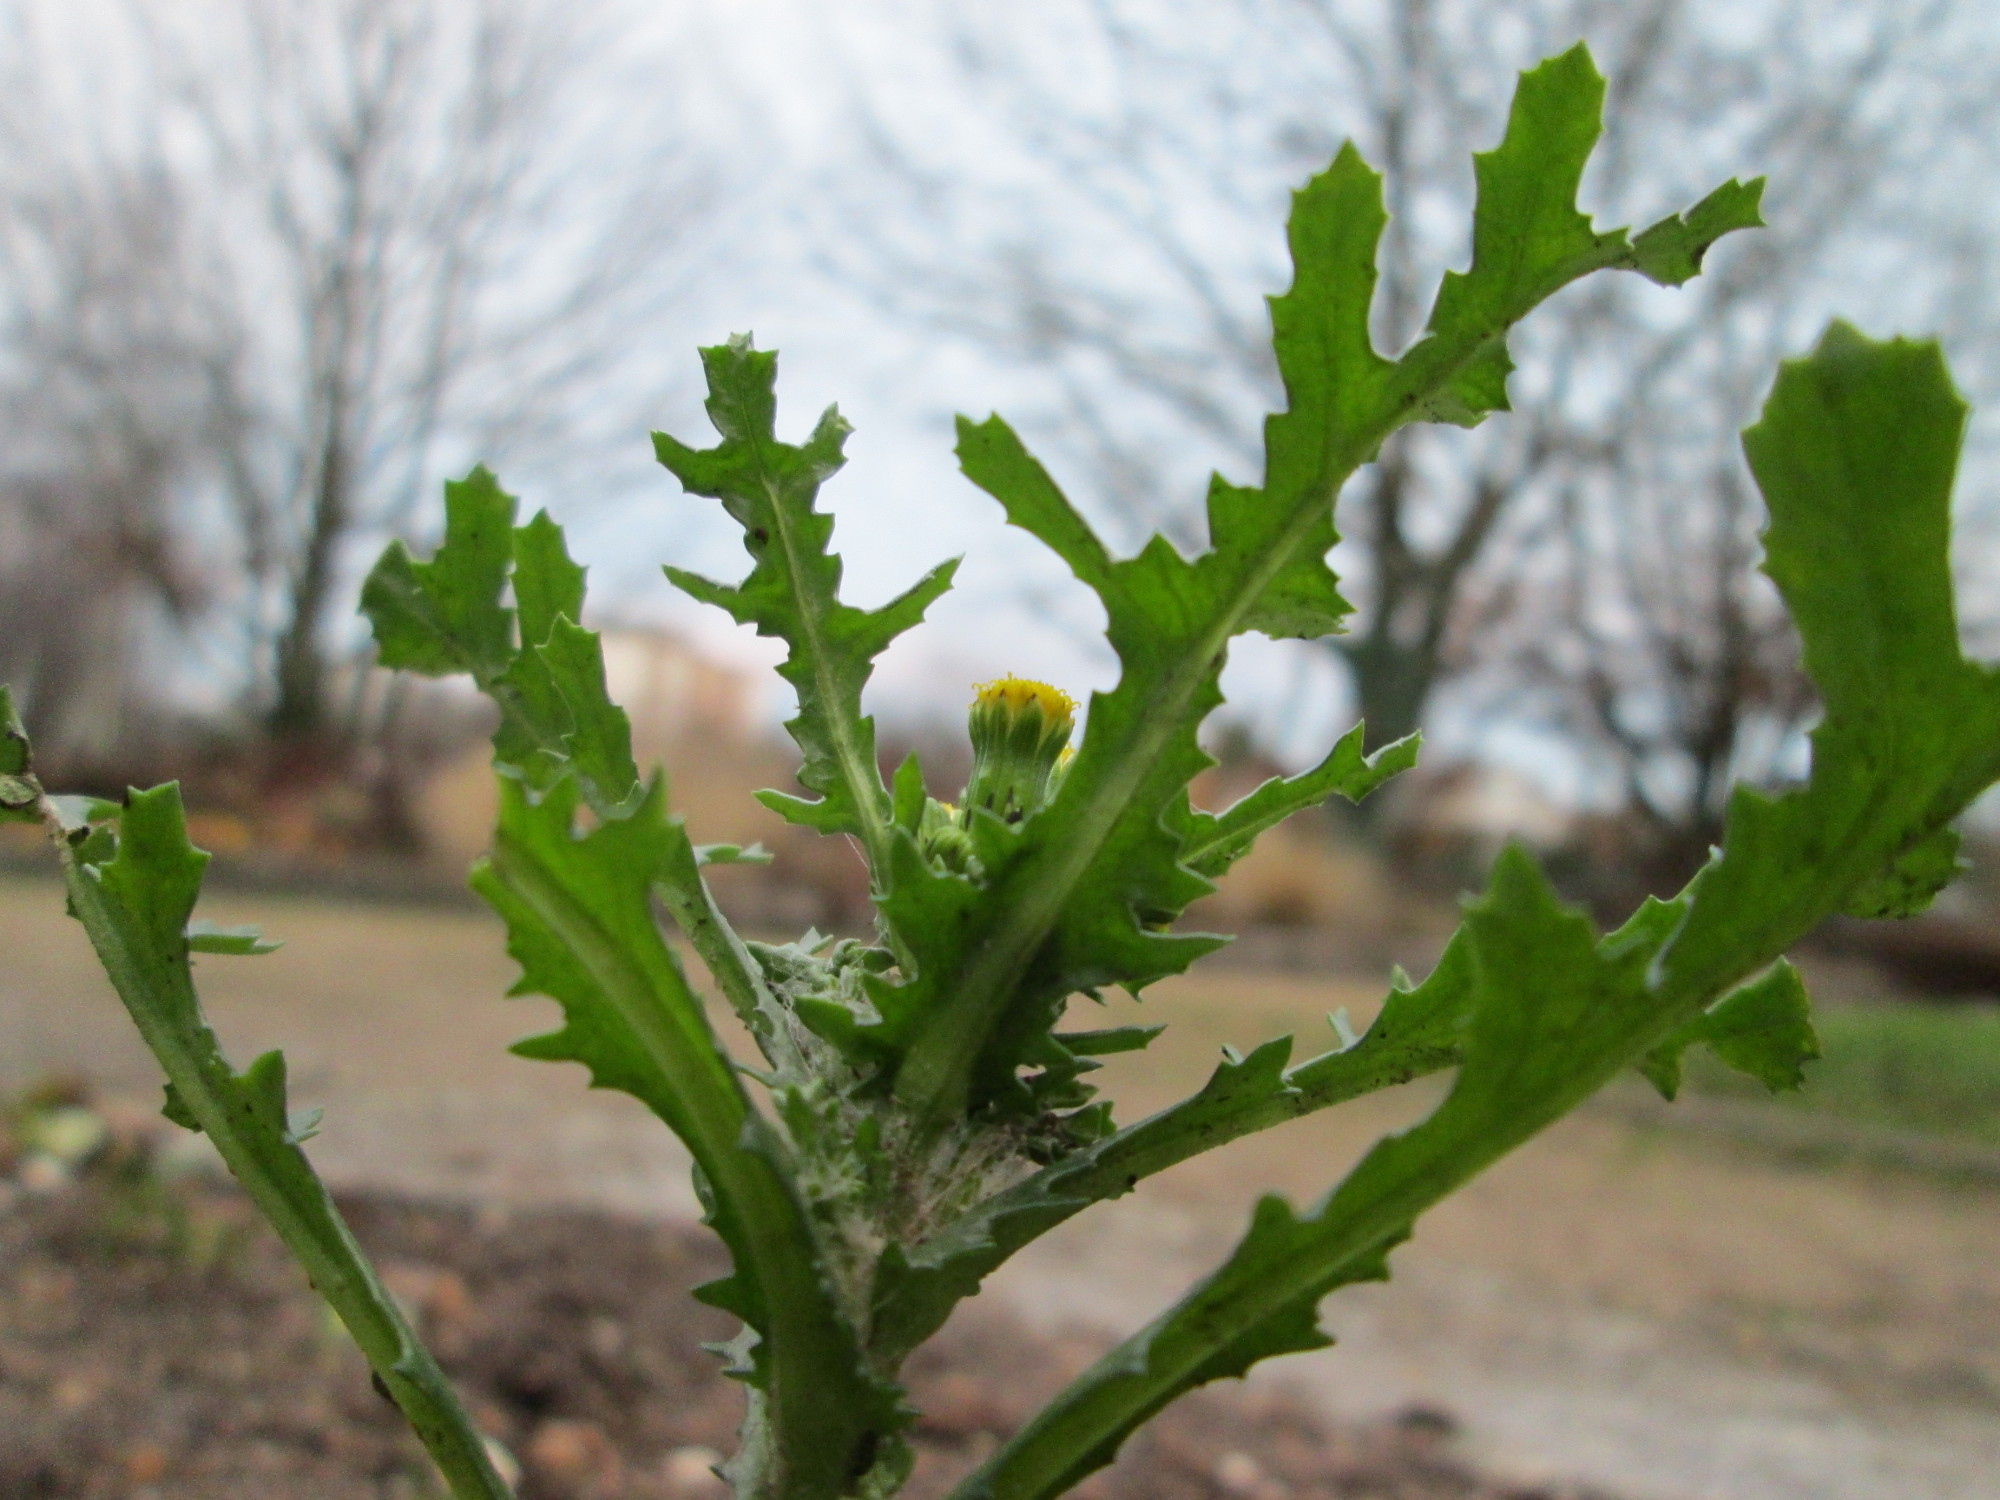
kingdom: Plantae
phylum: Tracheophyta
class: Magnoliopsida
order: Asterales
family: Asteraceae
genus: Senecio
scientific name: Senecio vulgaris
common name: Old-man-in-the-spring
